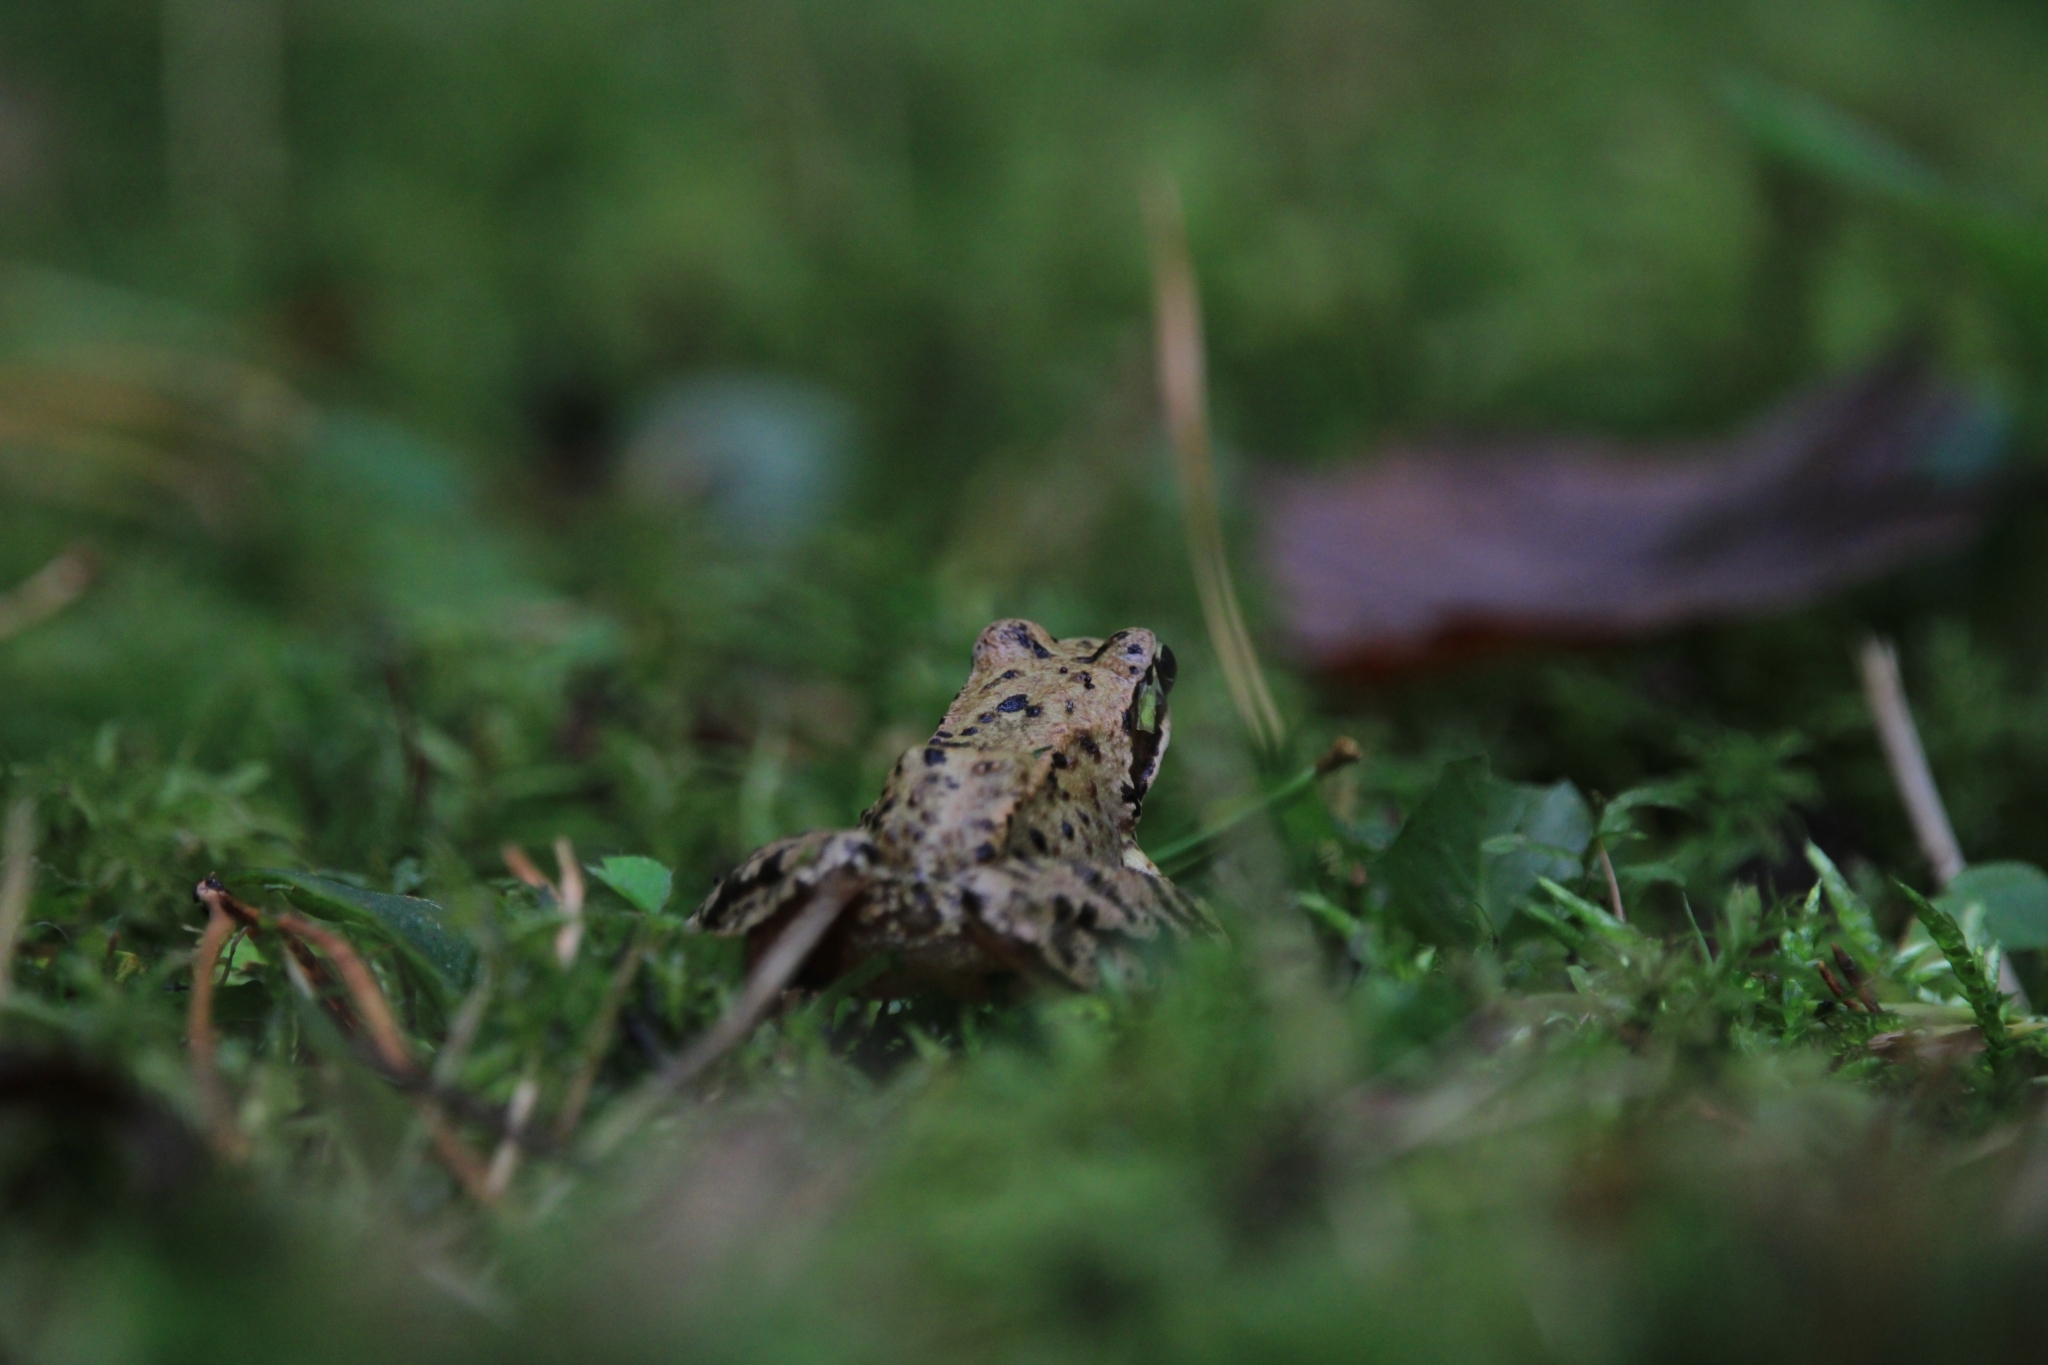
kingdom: Animalia
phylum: Chordata
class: Amphibia
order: Anura
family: Ranidae
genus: Rana
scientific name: Rana temporaria
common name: Common frog
